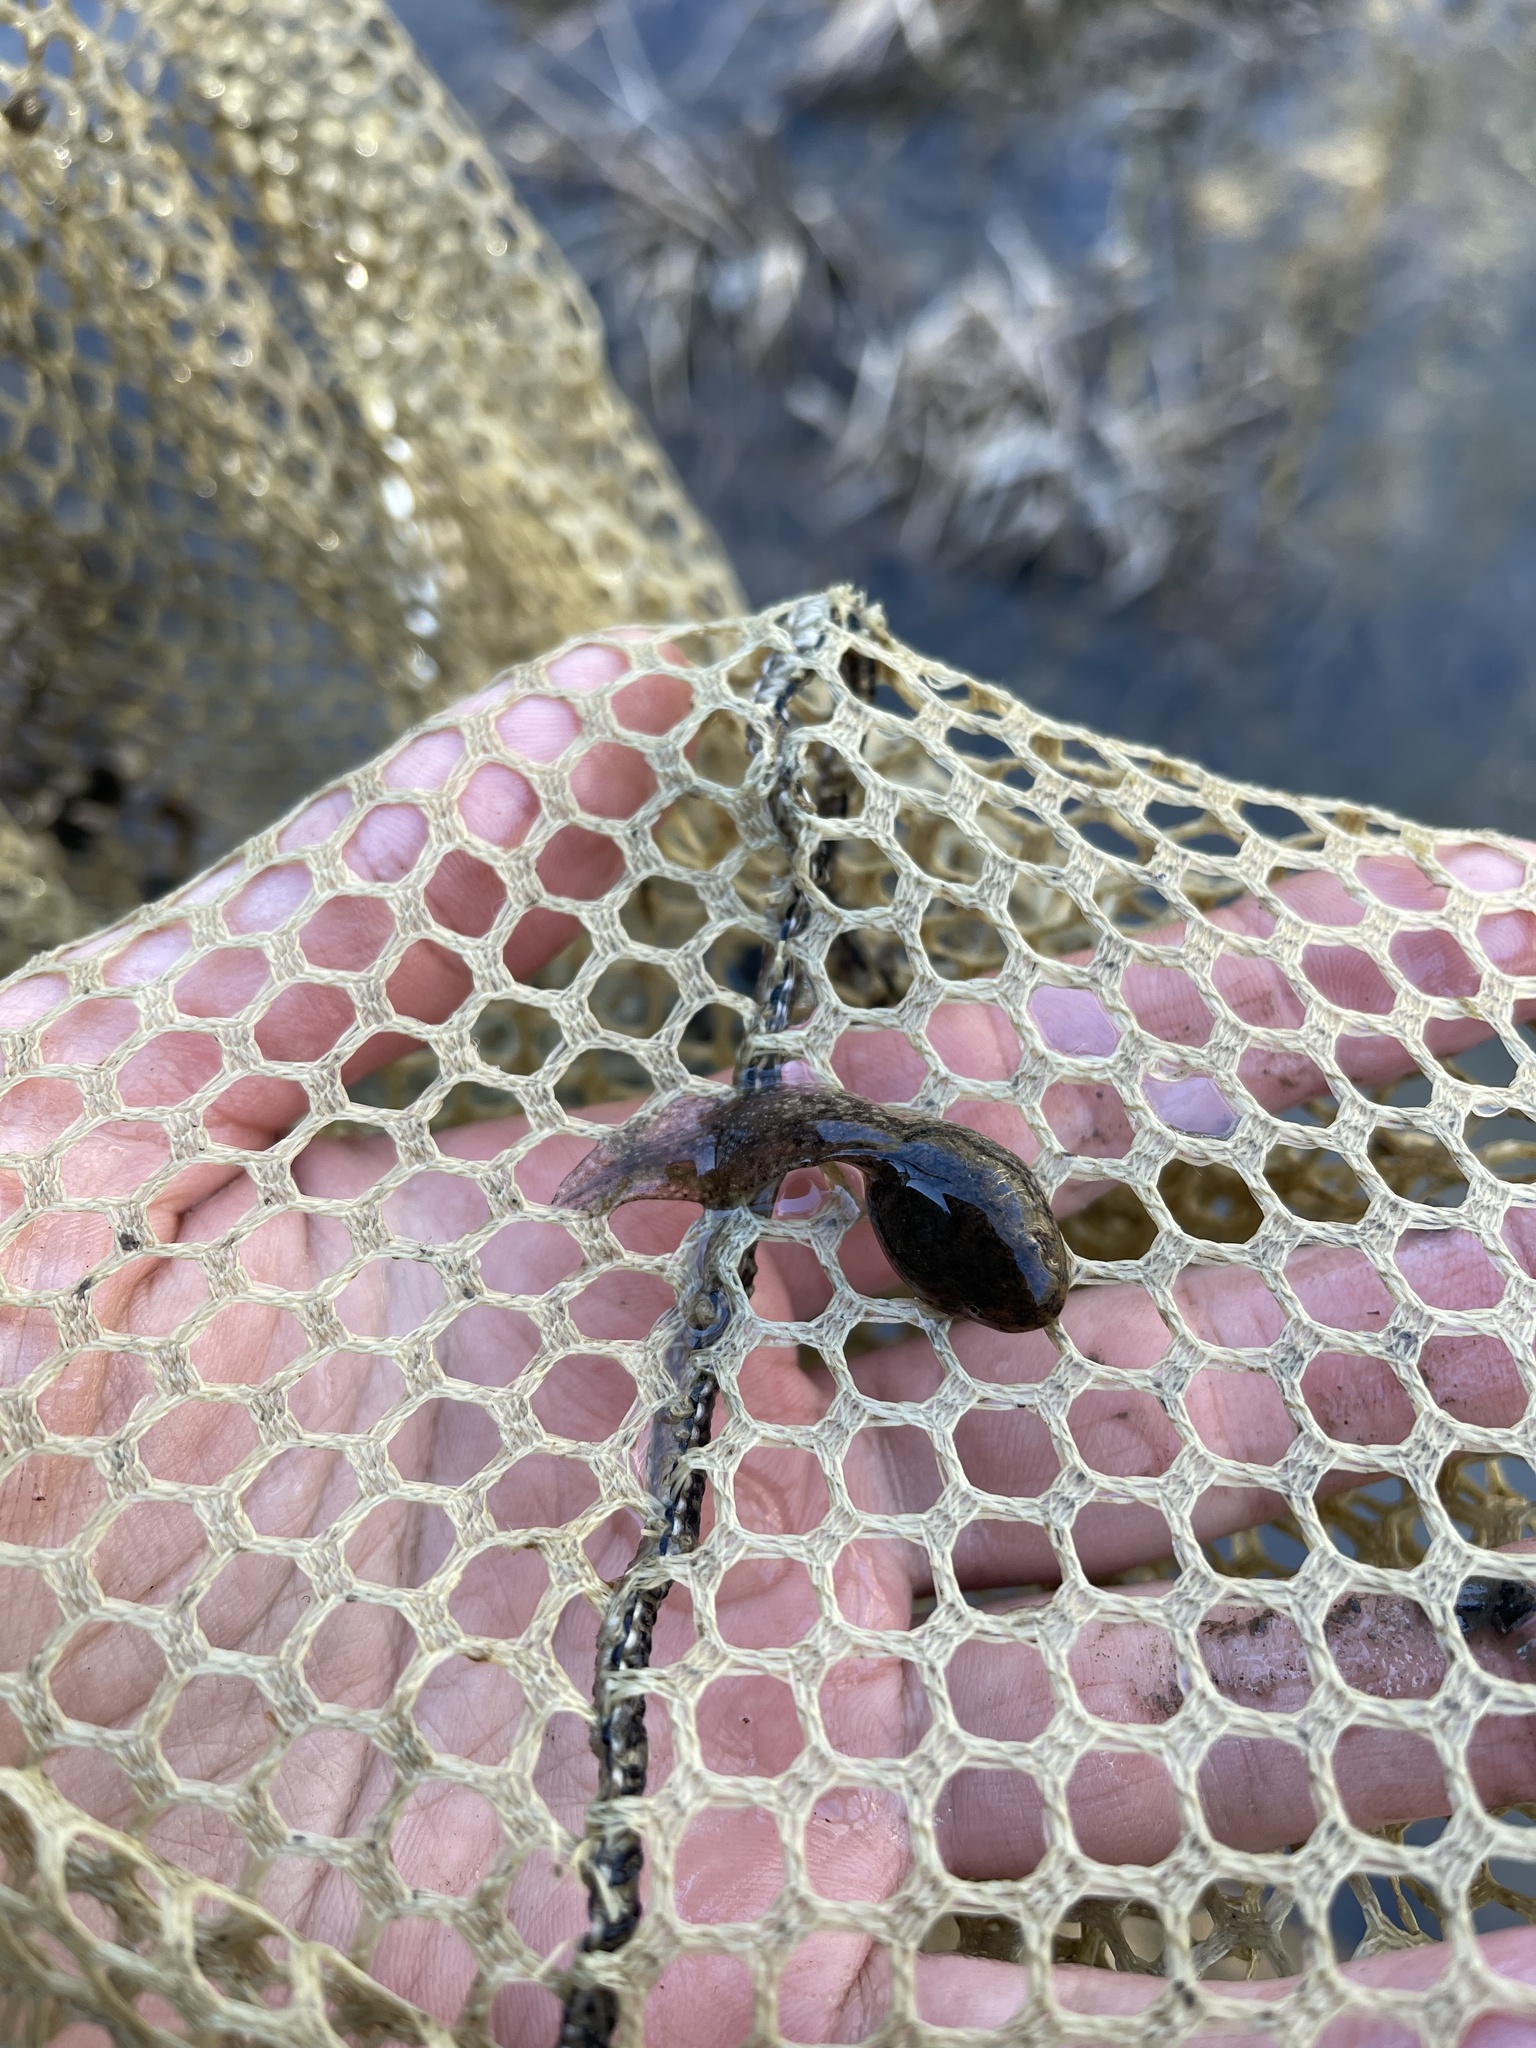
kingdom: Animalia
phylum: Chordata
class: Amphibia
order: Anura
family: Ranidae
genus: Lithobates
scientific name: Lithobates clamitans
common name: Green frog
